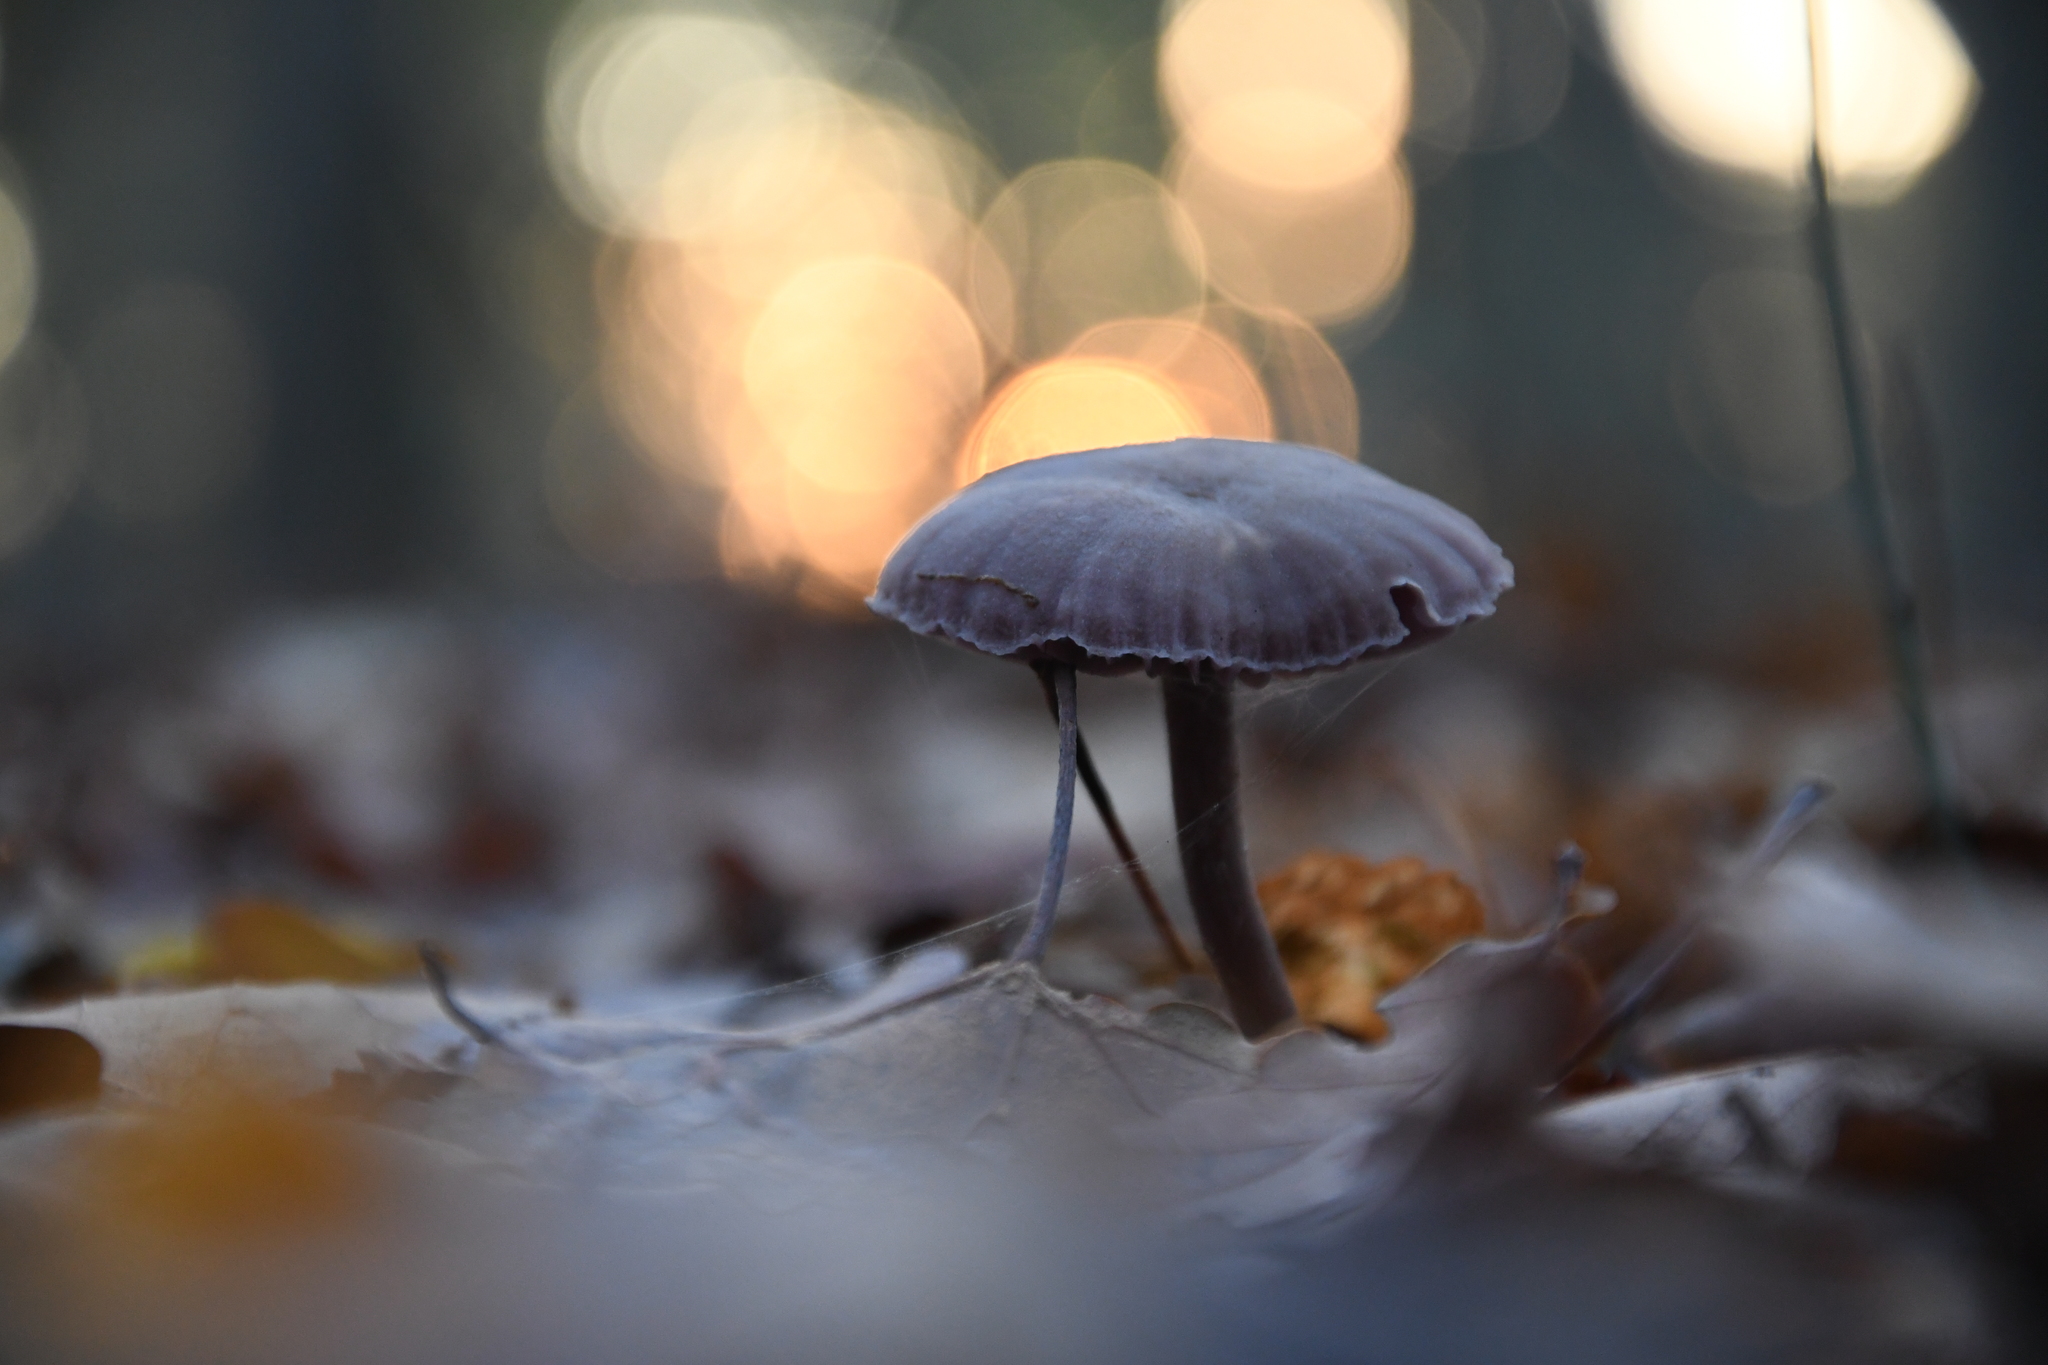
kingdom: Fungi
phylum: Basidiomycota
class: Agaricomycetes
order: Agaricales
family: Hydnangiaceae
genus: Laccaria
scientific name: Laccaria amethystina
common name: Amethyst deceiver
